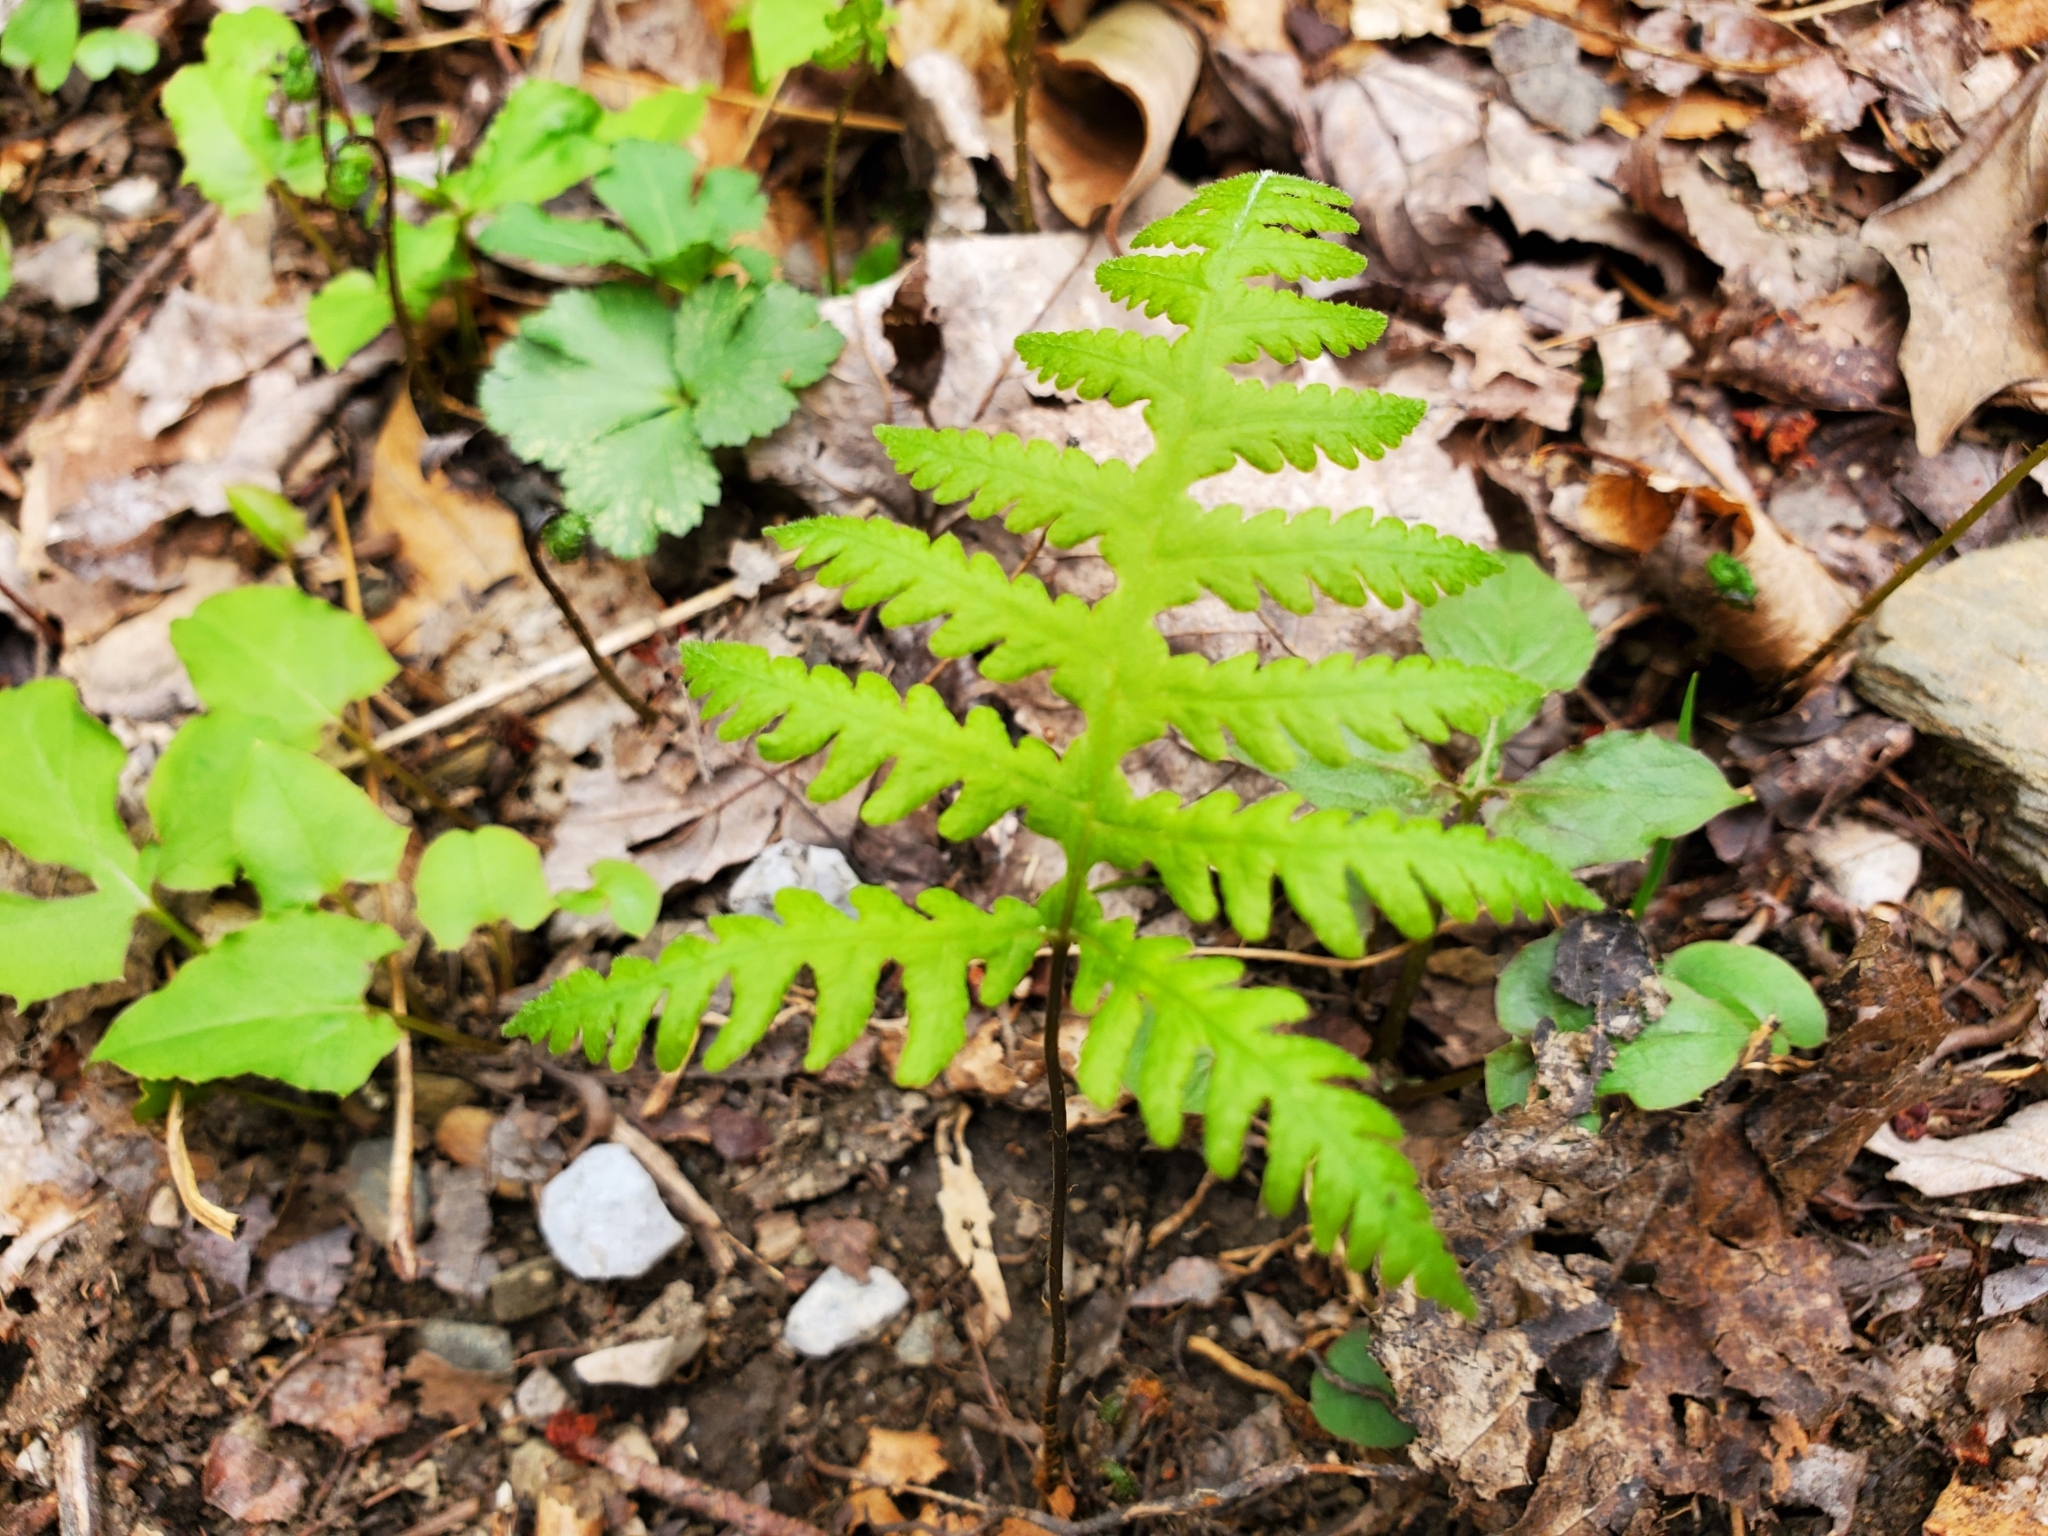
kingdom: Plantae
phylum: Tracheophyta
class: Polypodiopsida
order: Polypodiales
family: Thelypteridaceae
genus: Phegopteris
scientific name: Phegopteris hexagonoptera
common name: Broad beech fern
